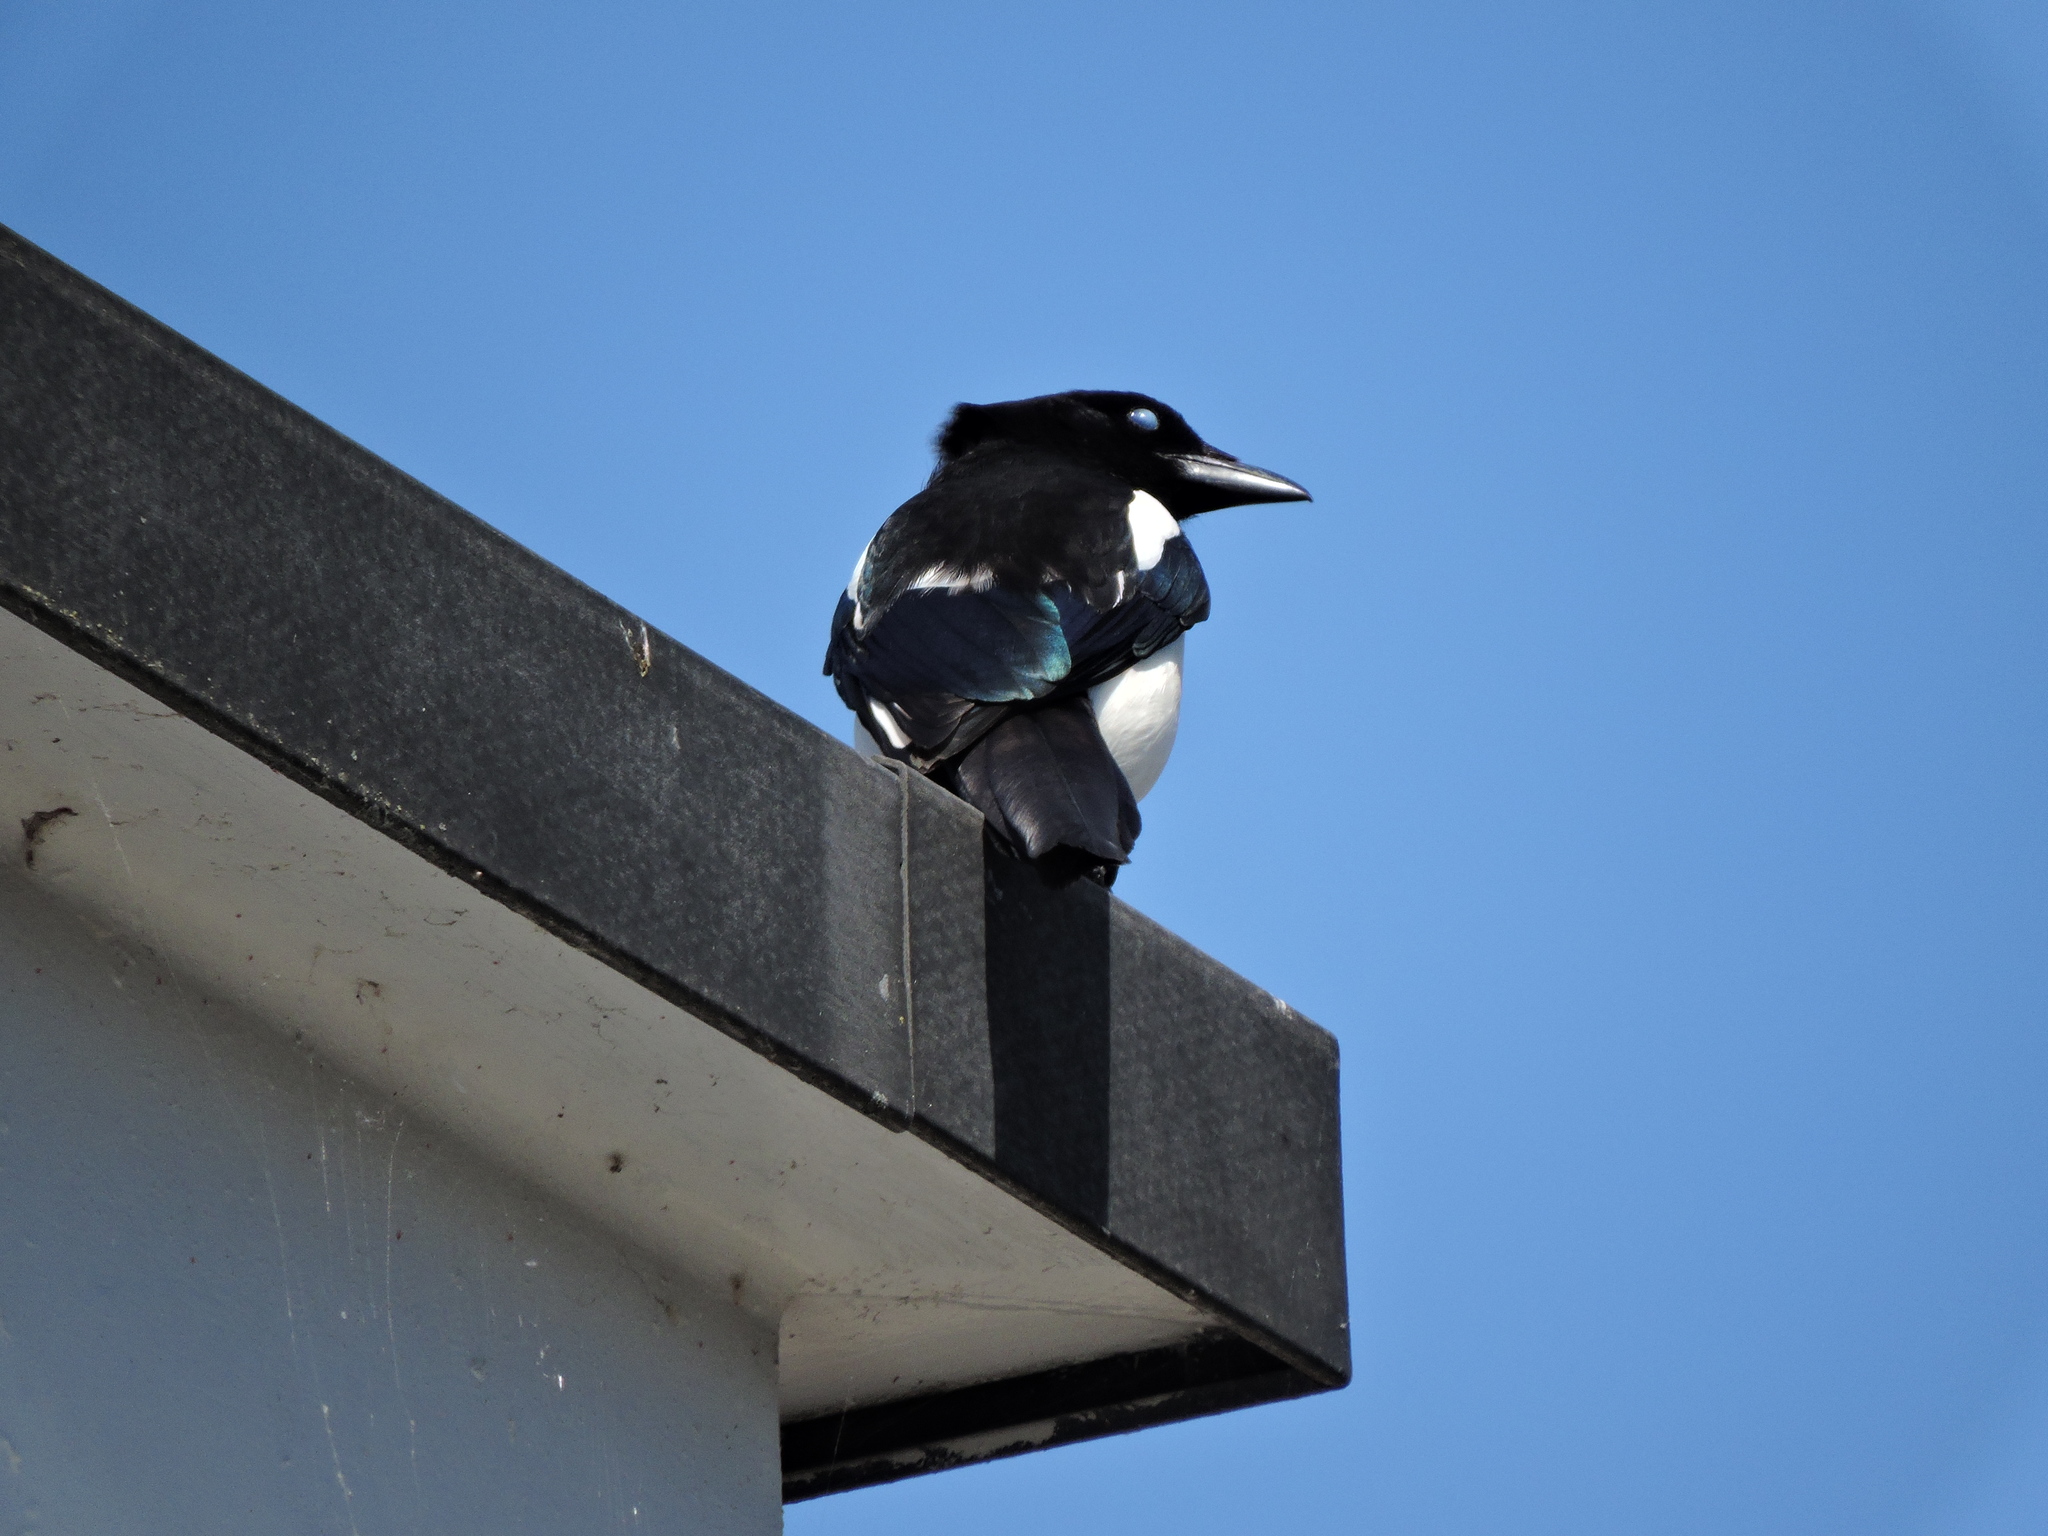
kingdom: Animalia
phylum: Chordata
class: Aves
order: Passeriformes
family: Corvidae
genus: Pica
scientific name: Pica pica
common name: Eurasian magpie
